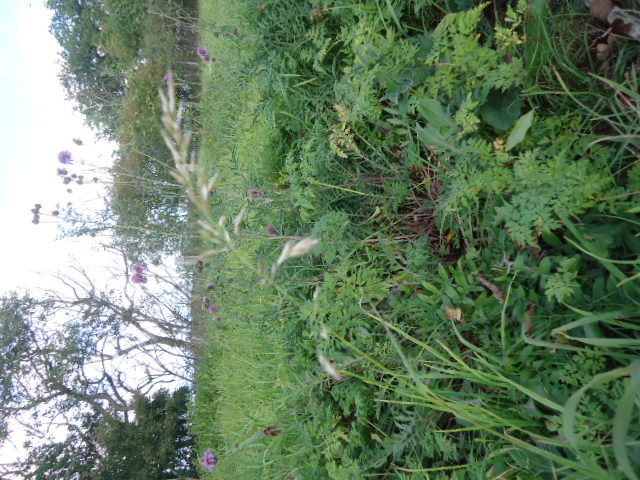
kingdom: Plantae
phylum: Tracheophyta
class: Liliopsida
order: Poales
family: Poaceae
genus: Arrhenatherum
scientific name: Arrhenatherum elatius
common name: Tall oatgrass
